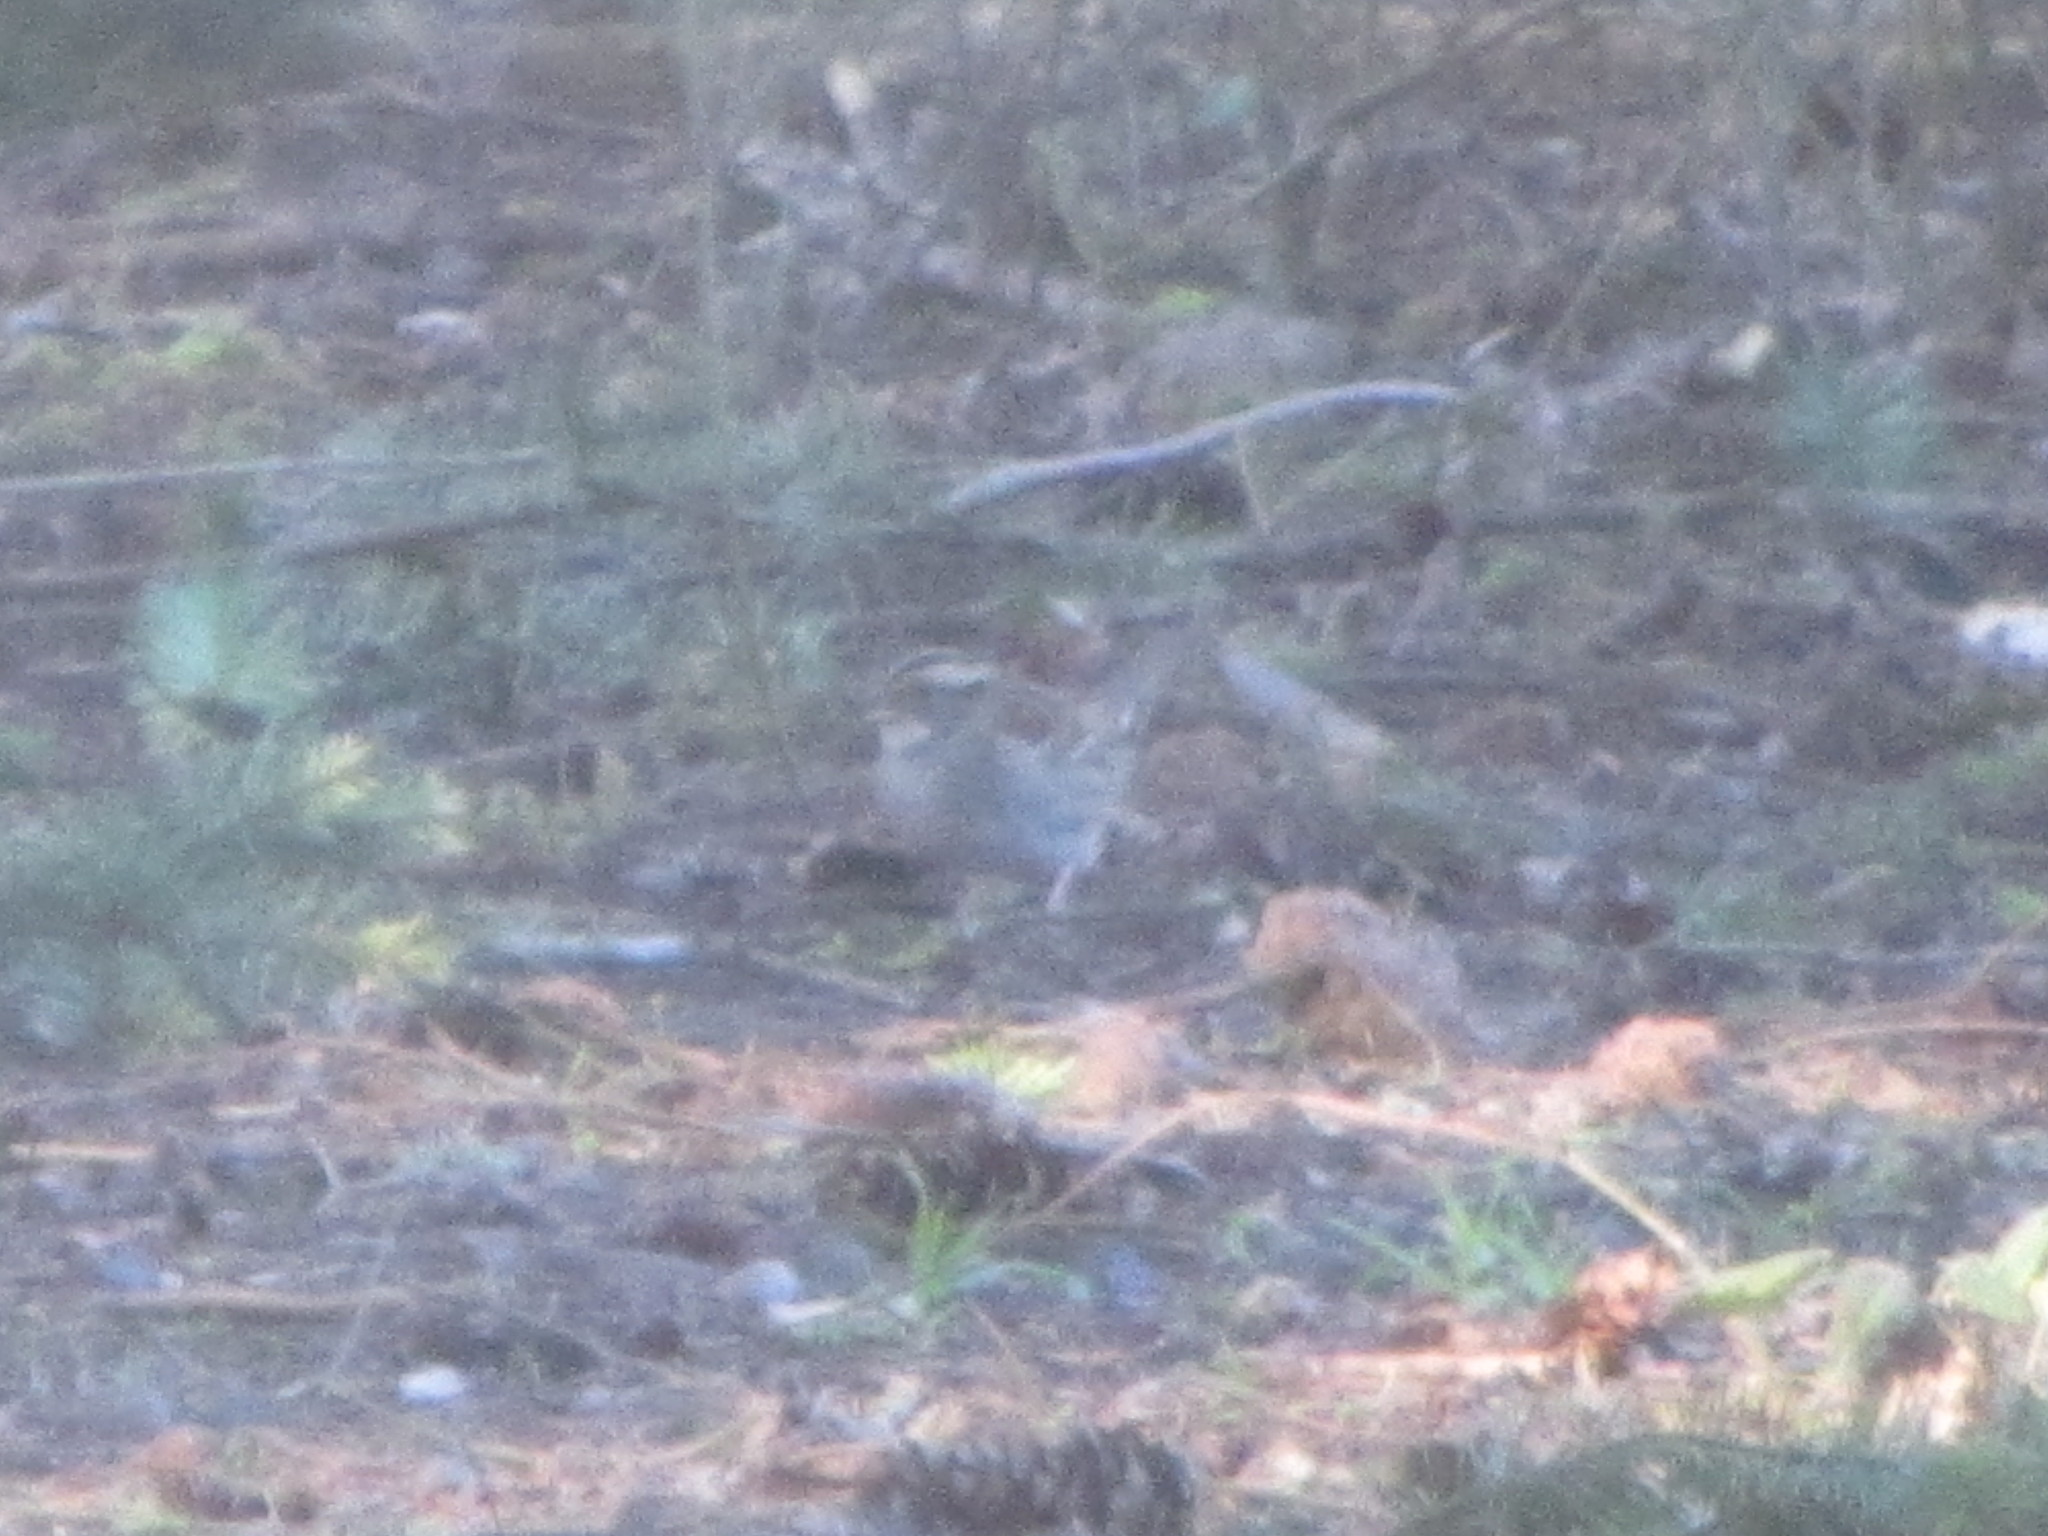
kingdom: Animalia
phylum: Chordata
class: Aves
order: Passeriformes
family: Passerellidae
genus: Zonotrichia
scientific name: Zonotrichia albicollis
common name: White-throated sparrow
